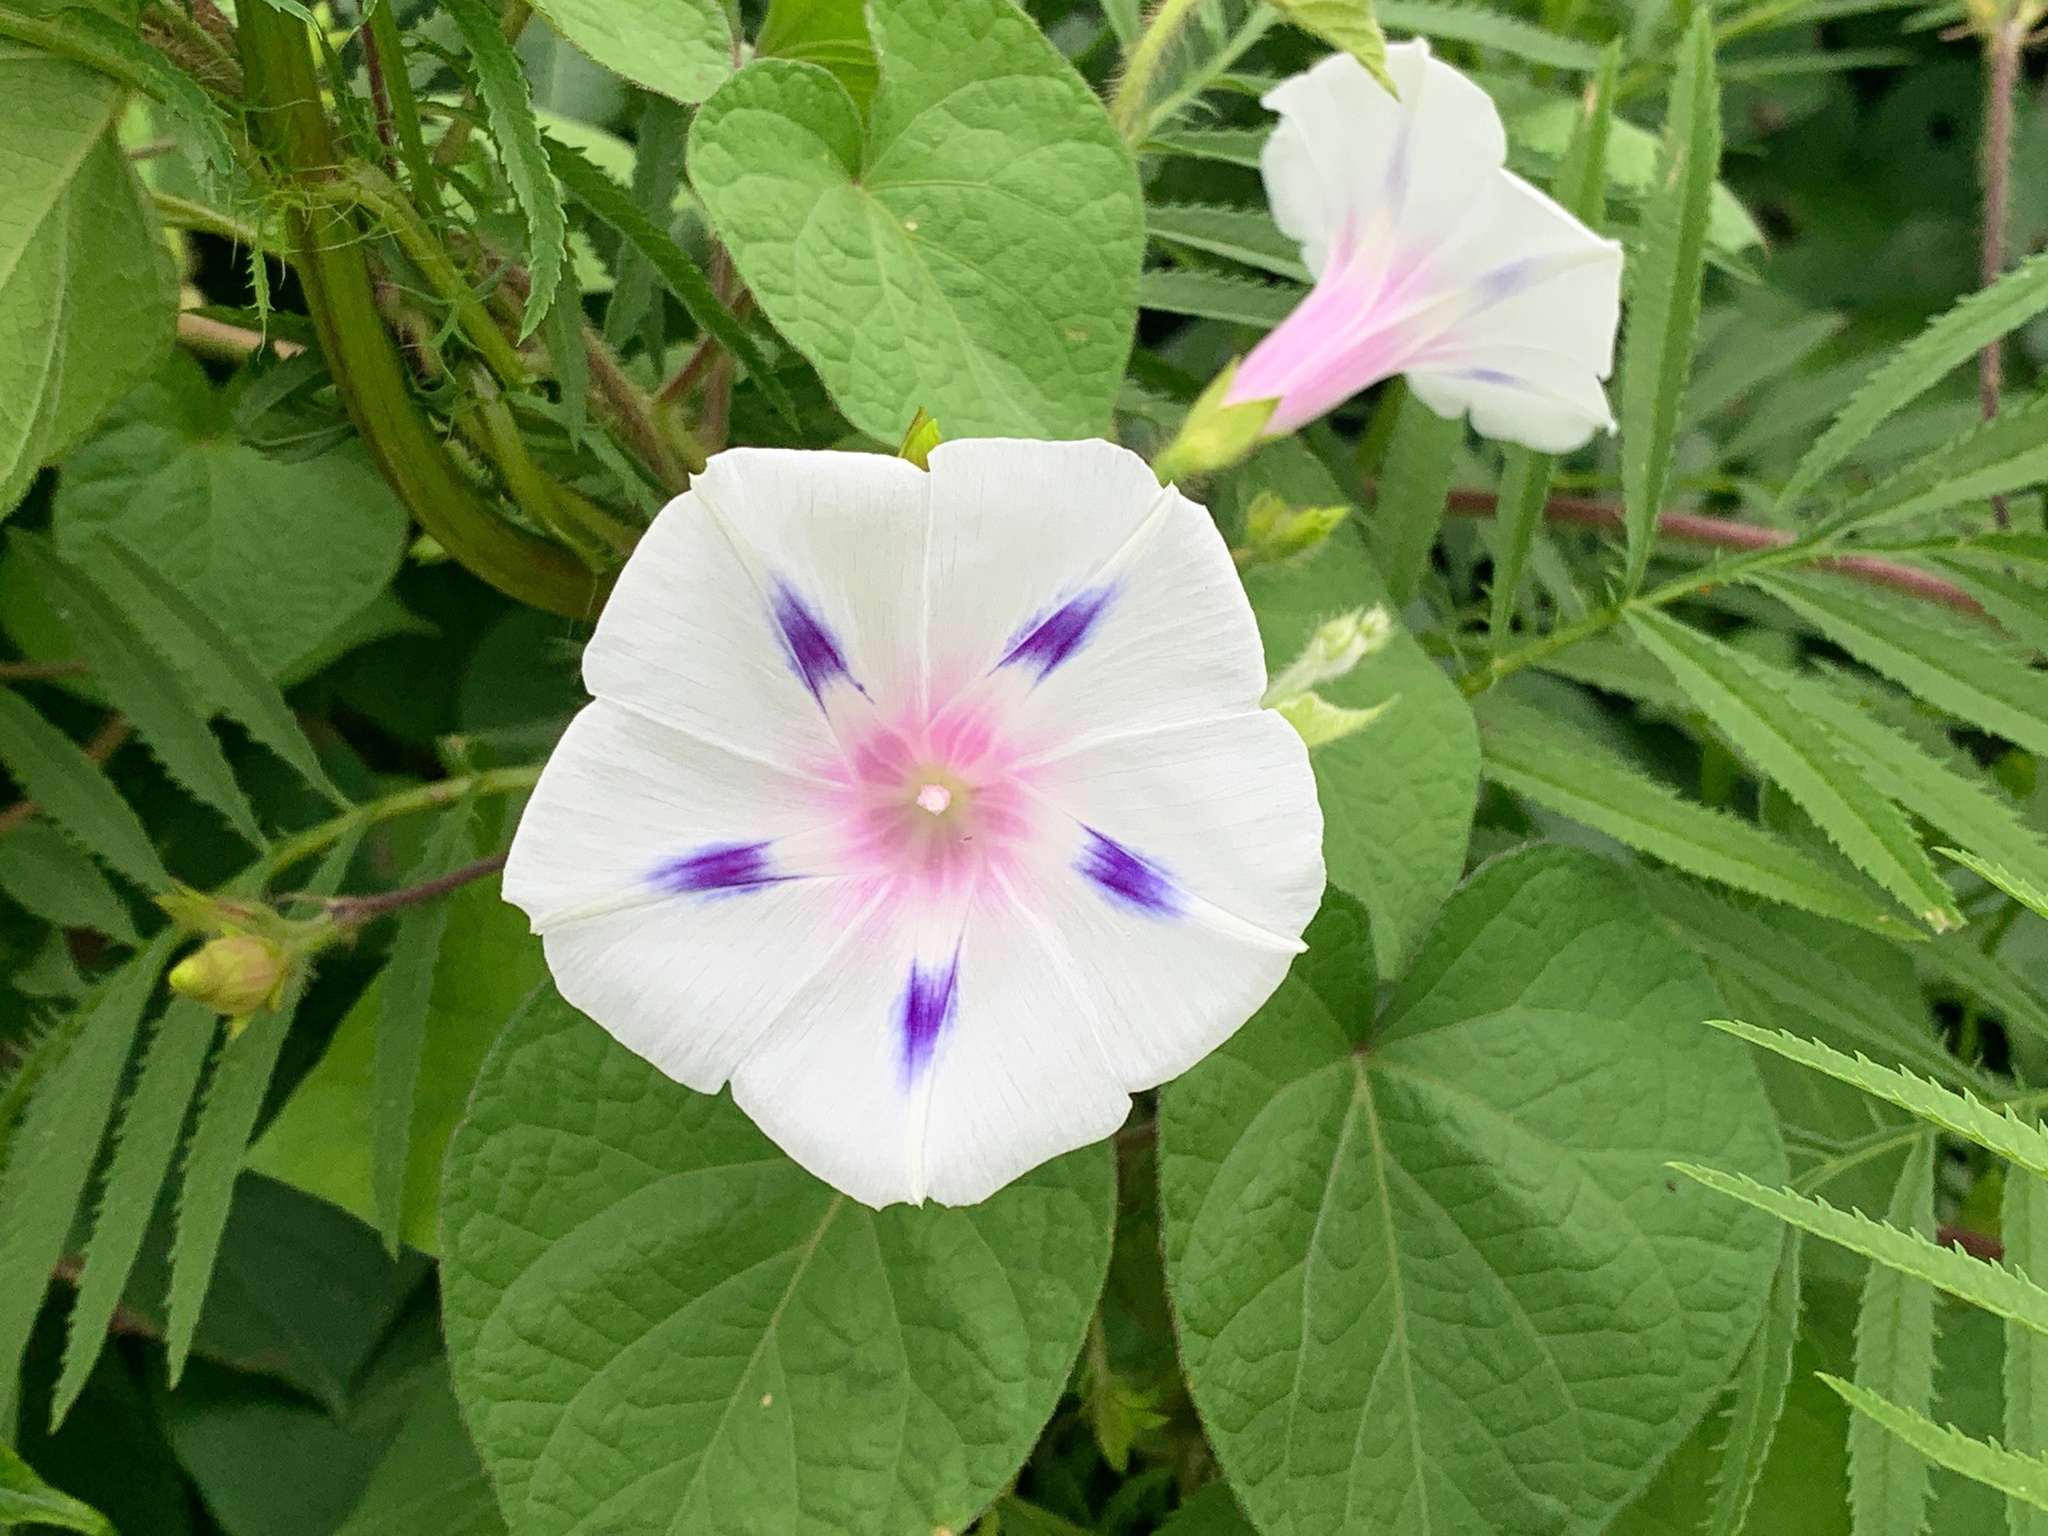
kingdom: Plantae
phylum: Tracheophyta
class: Magnoliopsida
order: Solanales
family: Convolvulaceae
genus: Ipomoea
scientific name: Ipomoea purpurea
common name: Common morning-glory
